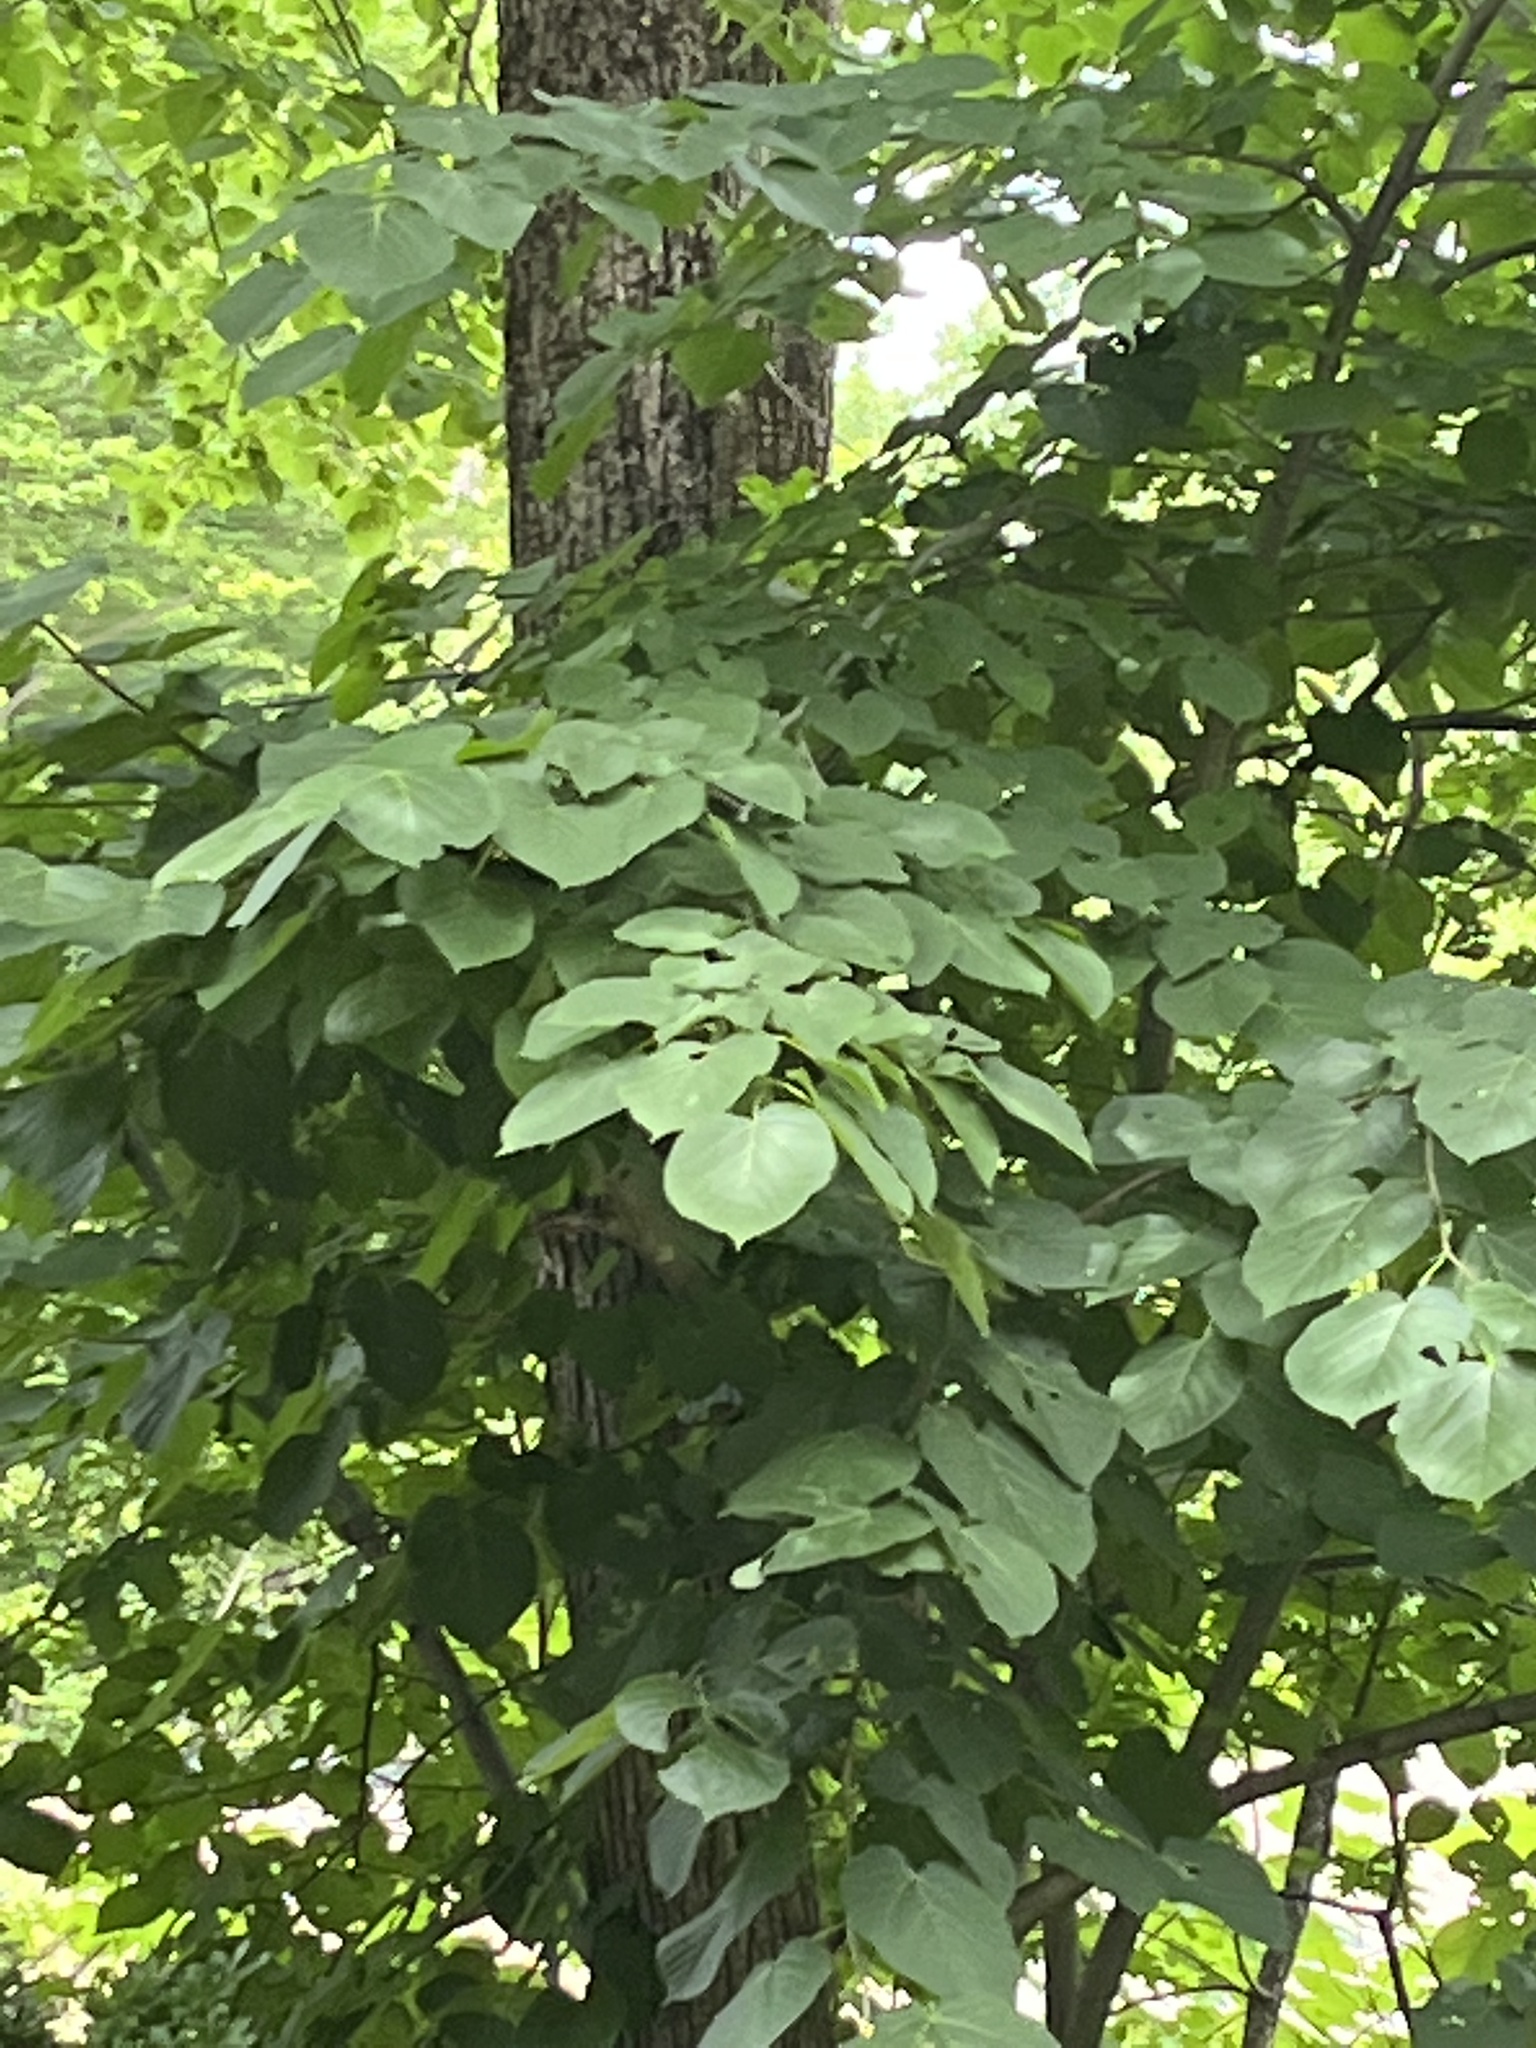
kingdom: Plantae
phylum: Tracheophyta
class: Magnoliopsida
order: Malvales
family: Malvaceae
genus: Tilia
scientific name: Tilia americana
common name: Basswood
